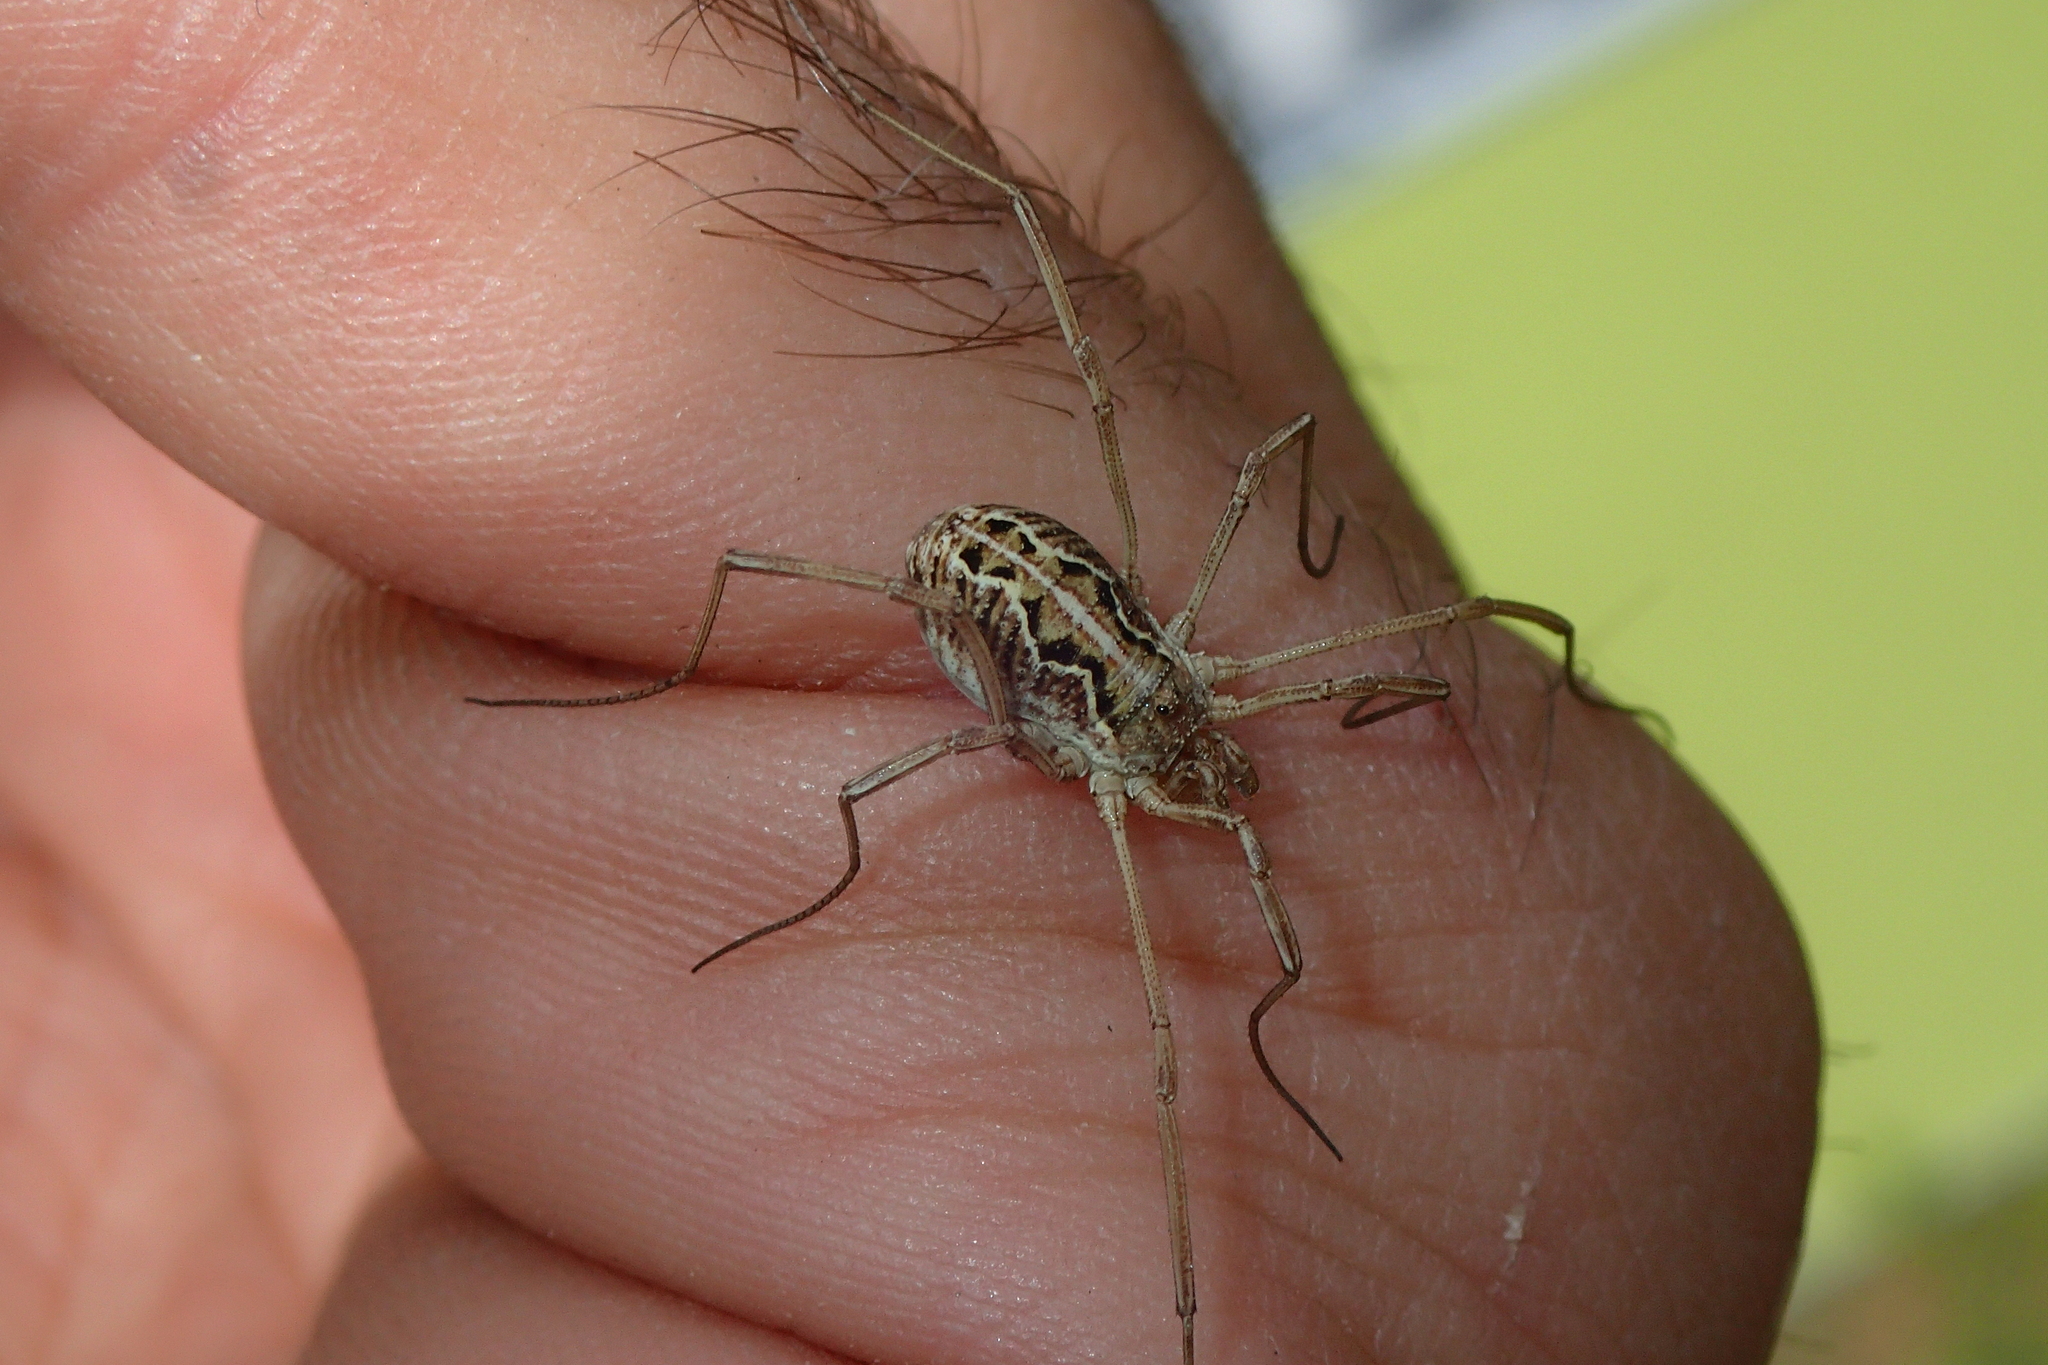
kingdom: Animalia
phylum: Arthropoda
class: Arachnida
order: Opiliones
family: Phalangiidae
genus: Mitopus
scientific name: Mitopus morio
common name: Saddleback harvestman
